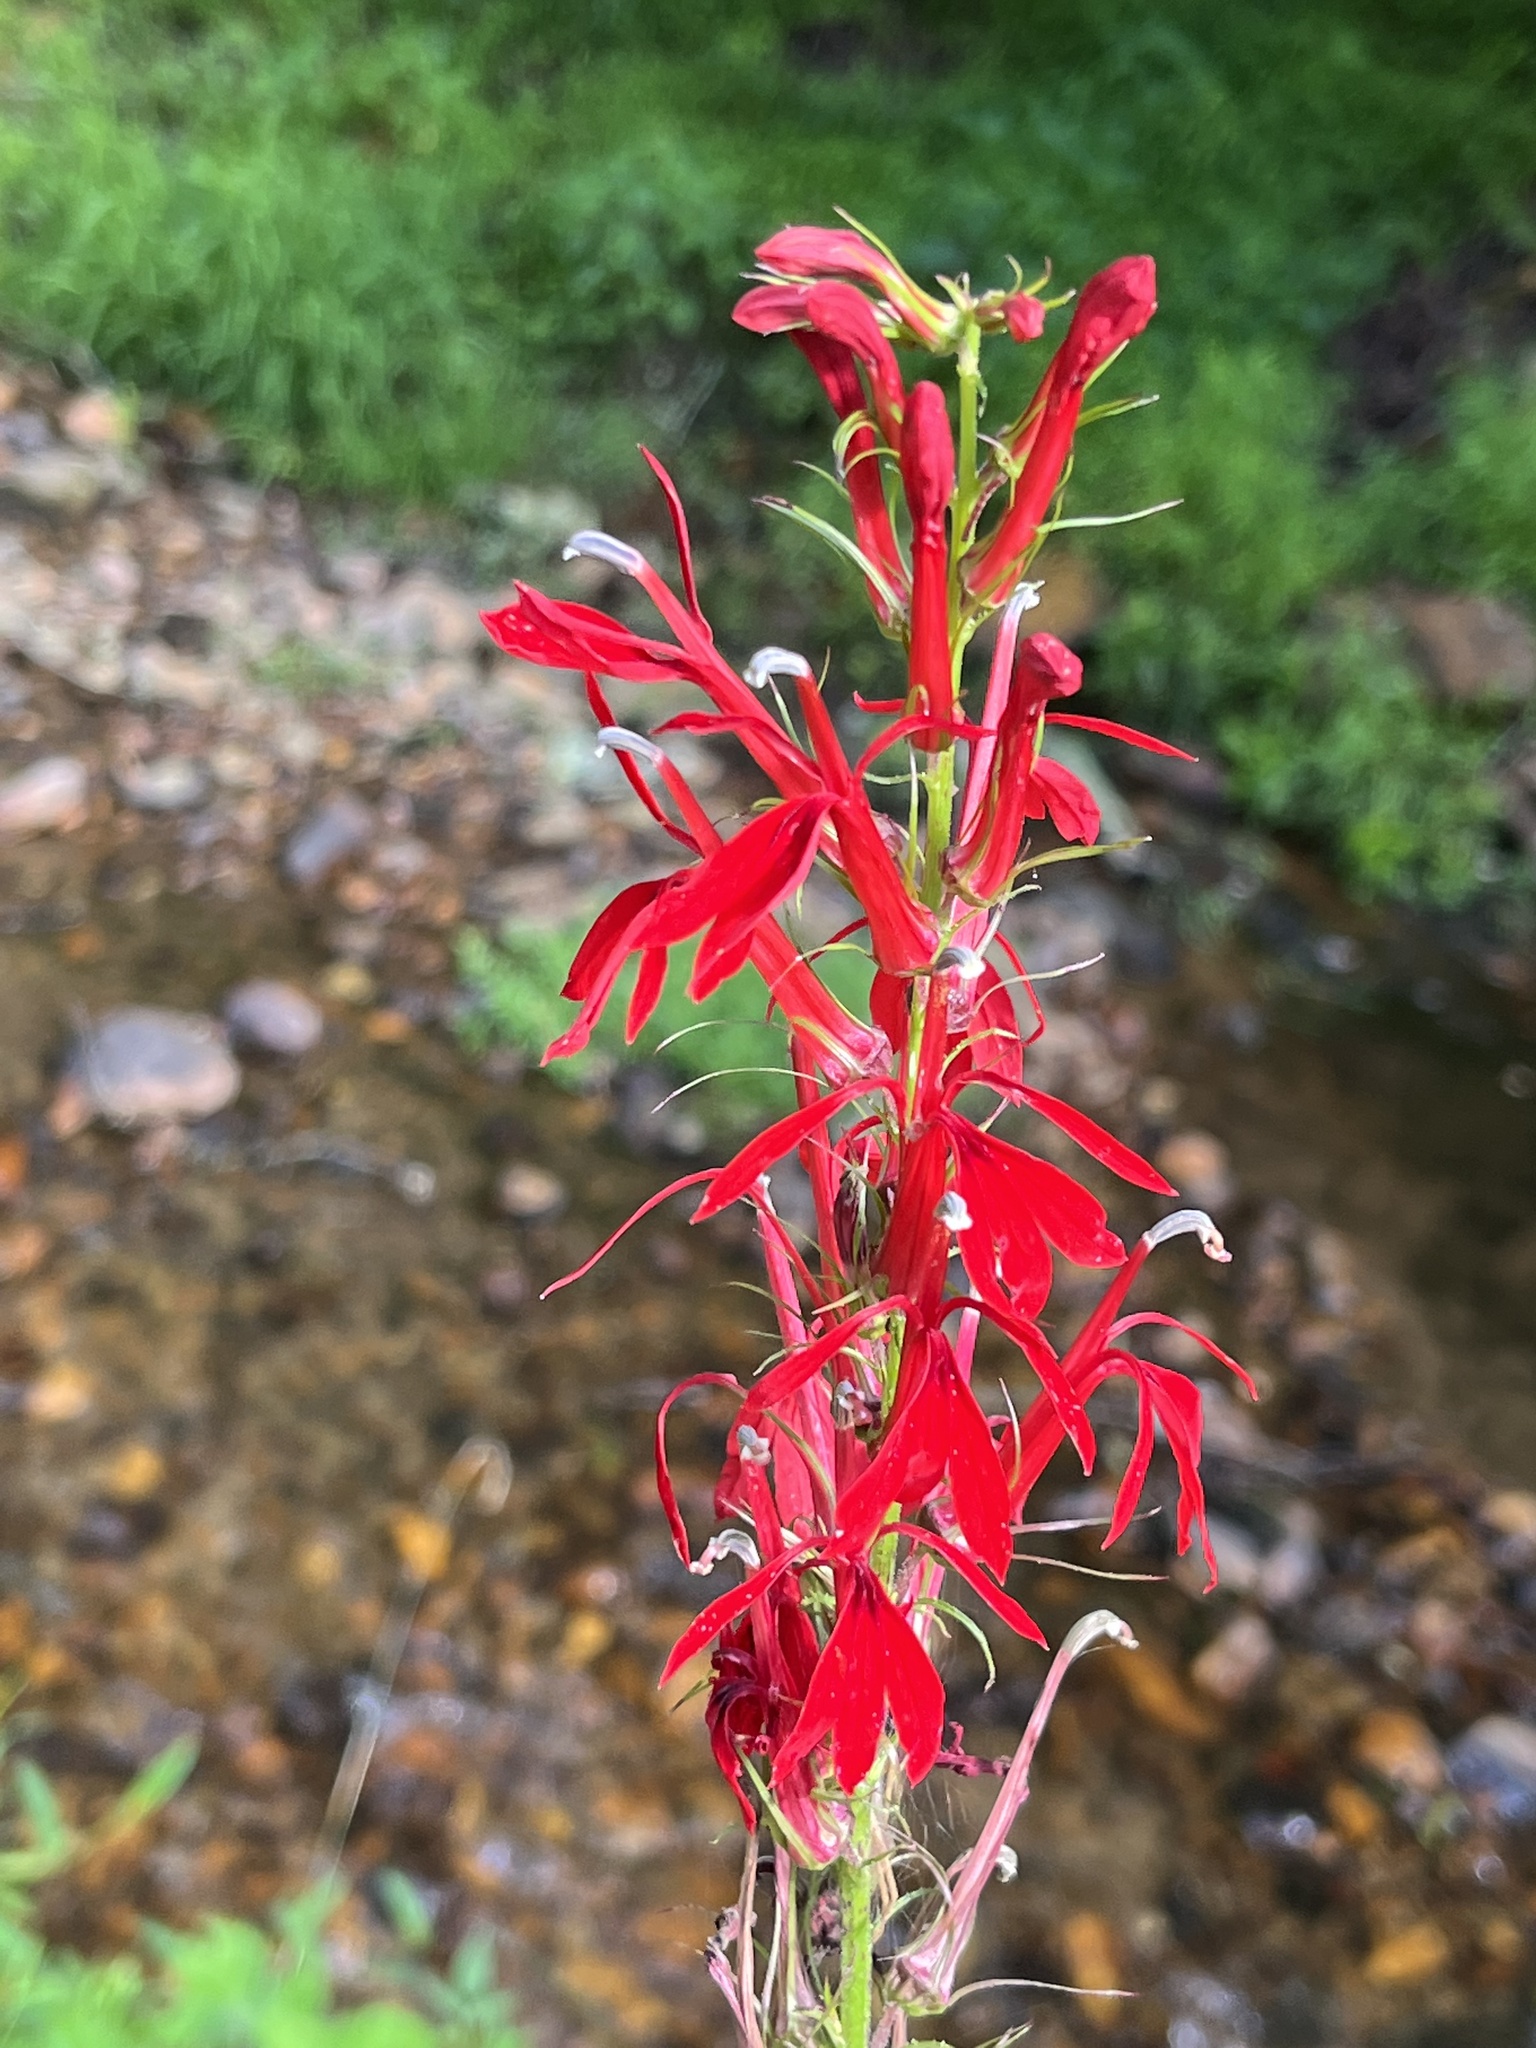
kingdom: Plantae
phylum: Tracheophyta
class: Magnoliopsida
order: Asterales
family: Campanulaceae
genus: Lobelia
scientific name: Lobelia cardinalis
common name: Cardinal flower
